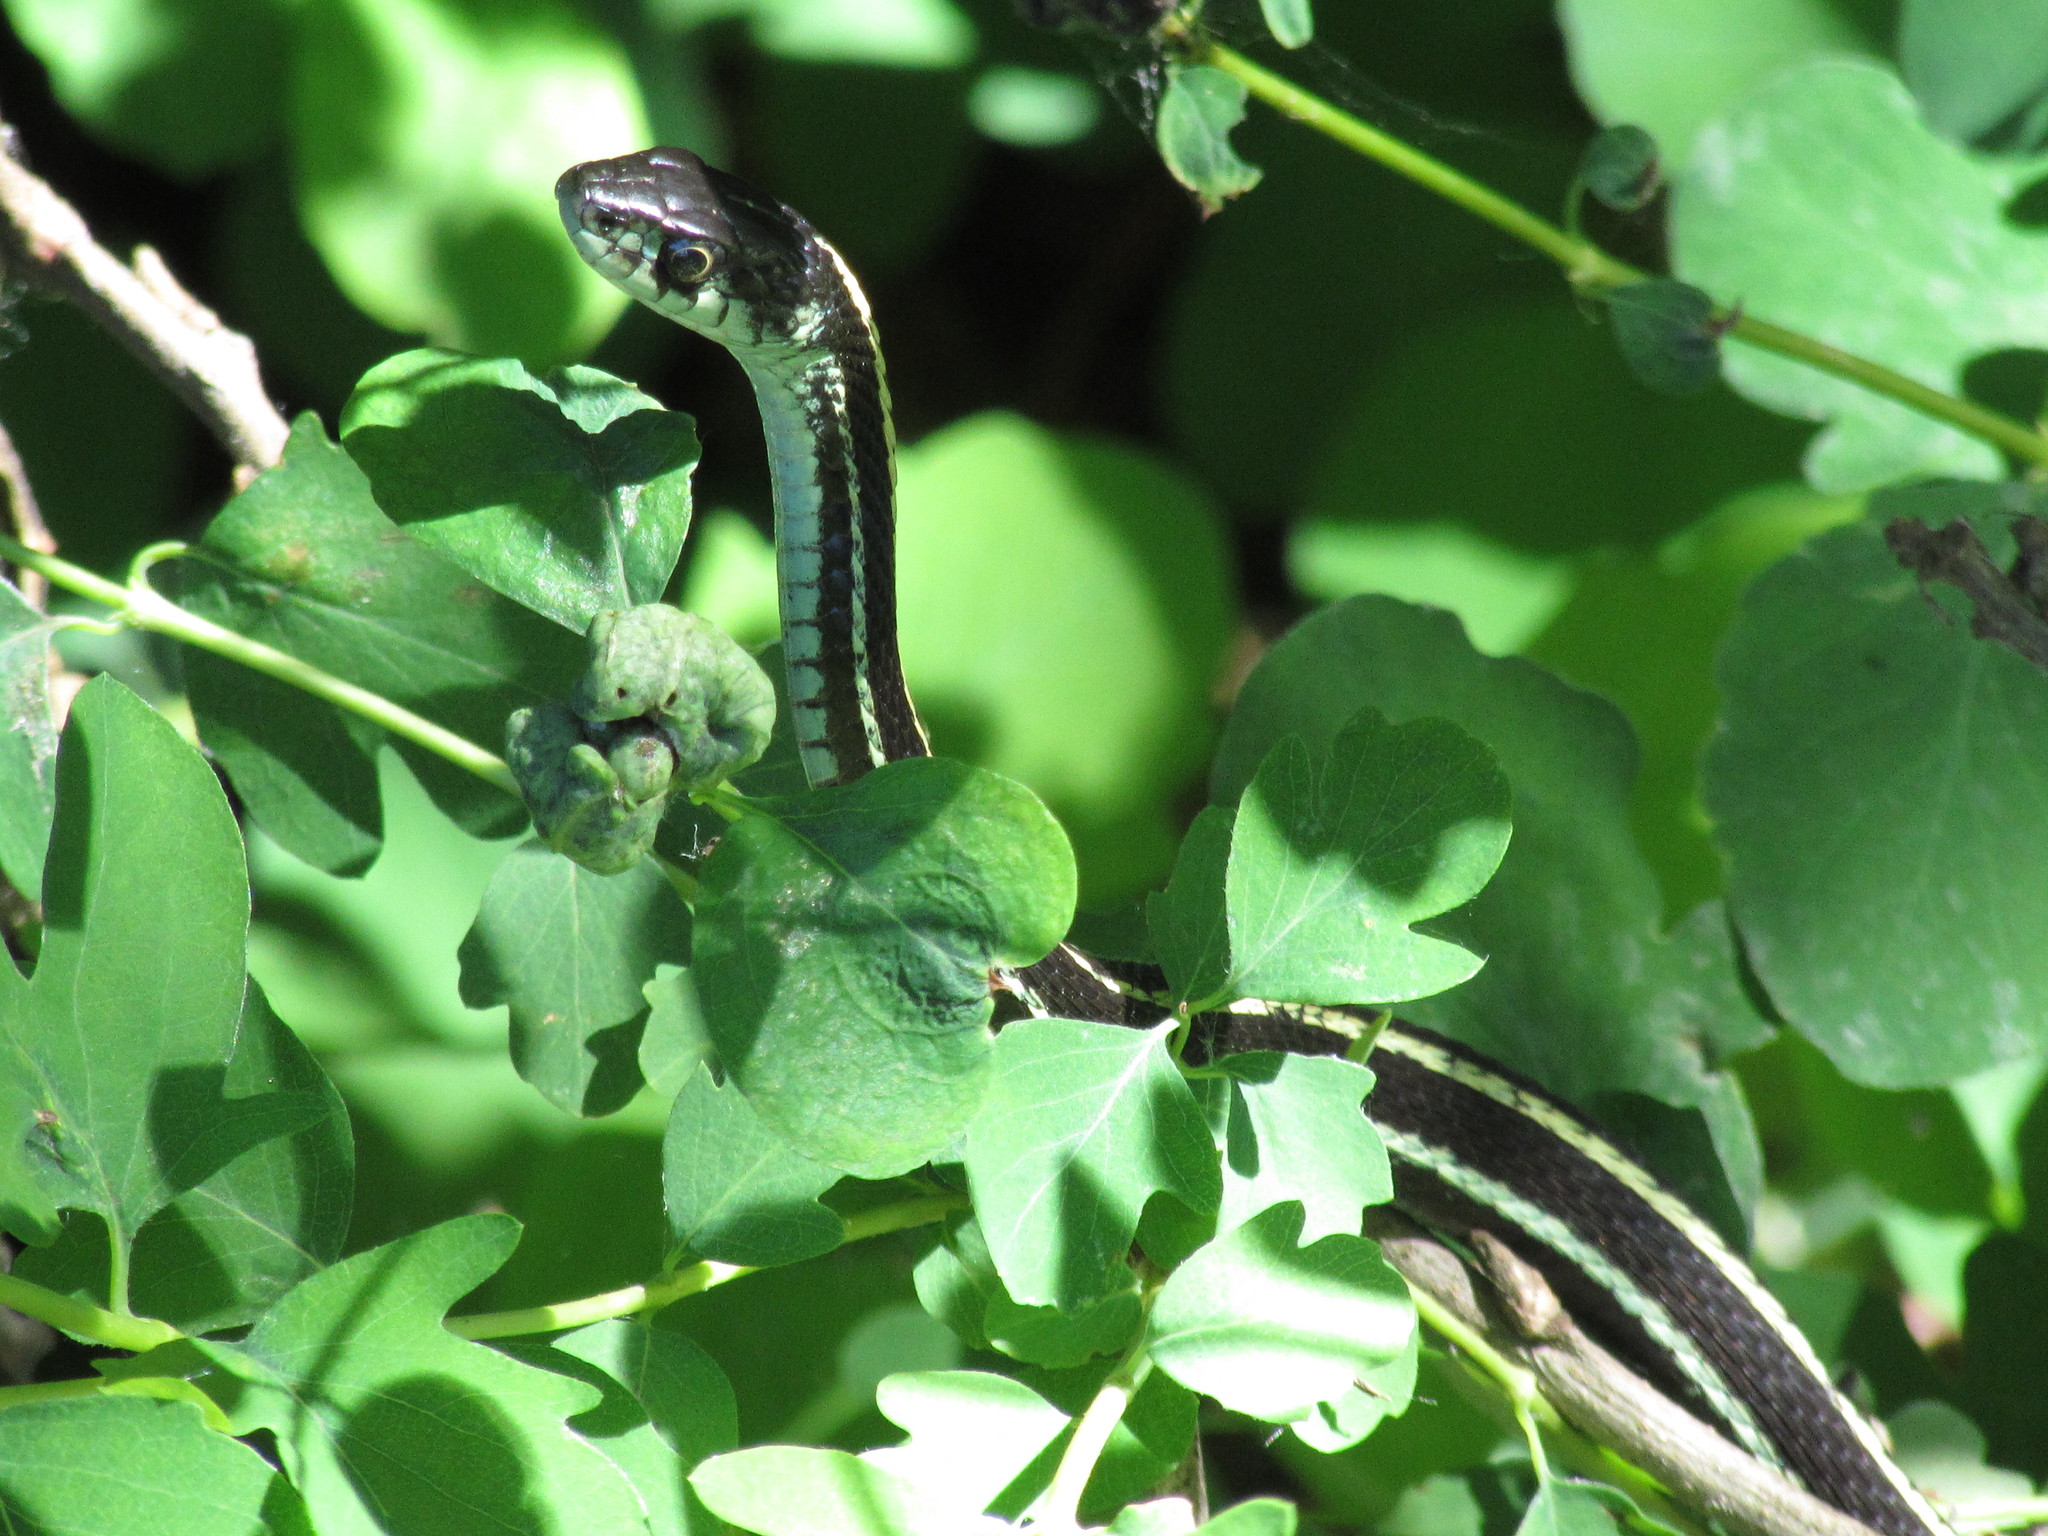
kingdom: Animalia
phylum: Chordata
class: Squamata
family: Colubridae
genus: Thamnophis
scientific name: Thamnophis sirtalis
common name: Common garter snake
